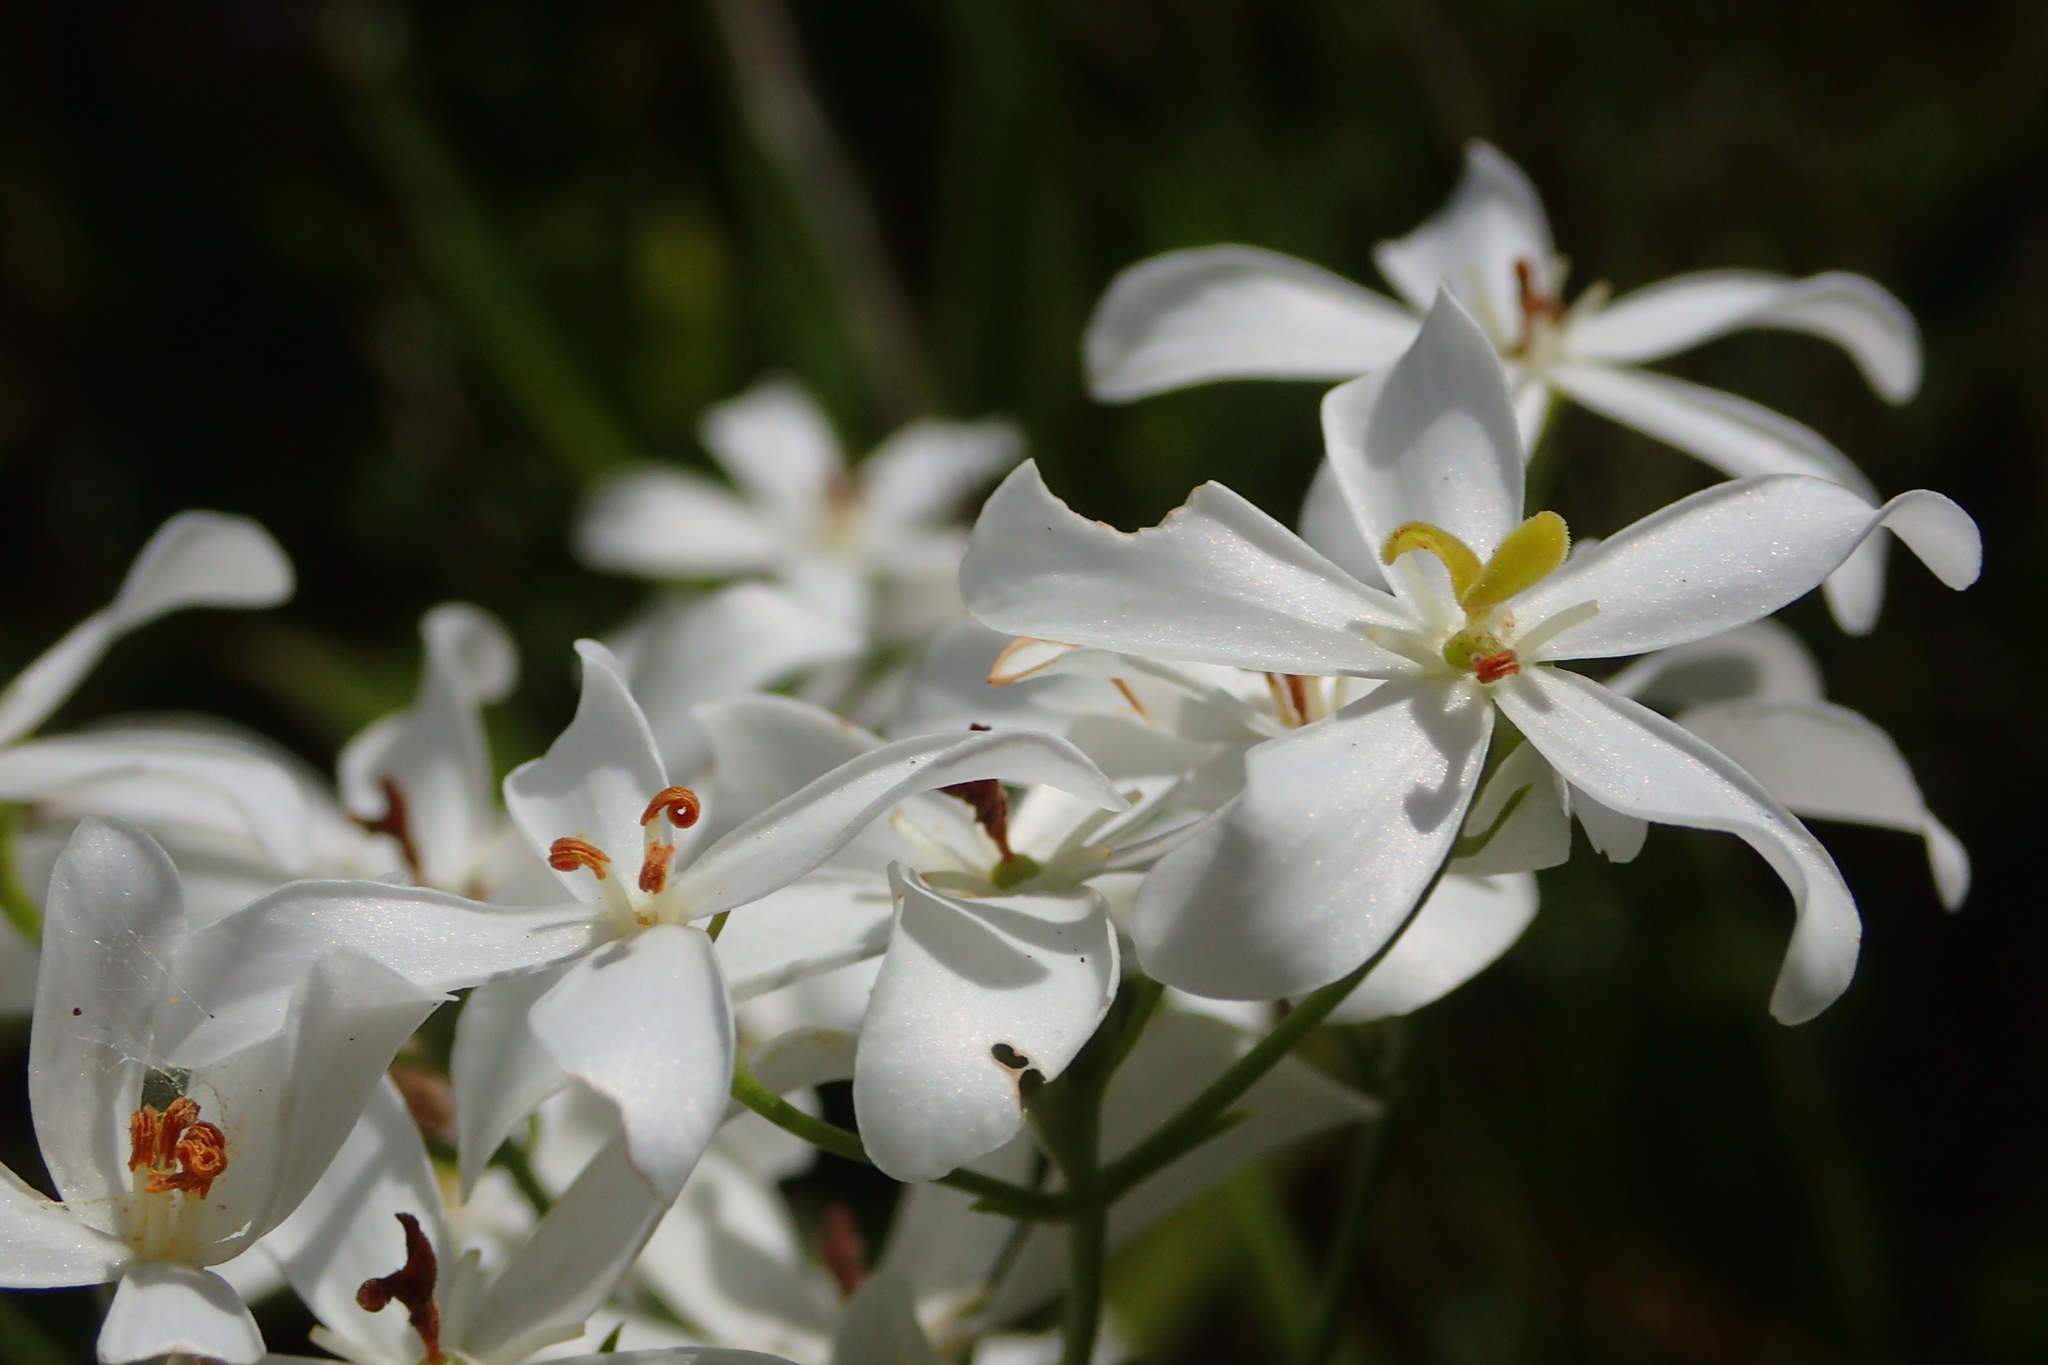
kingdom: Plantae
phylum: Tracheophyta
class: Magnoliopsida
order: Gentianales
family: Gentianaceae
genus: Sabatia
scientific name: Sabatia difformis
